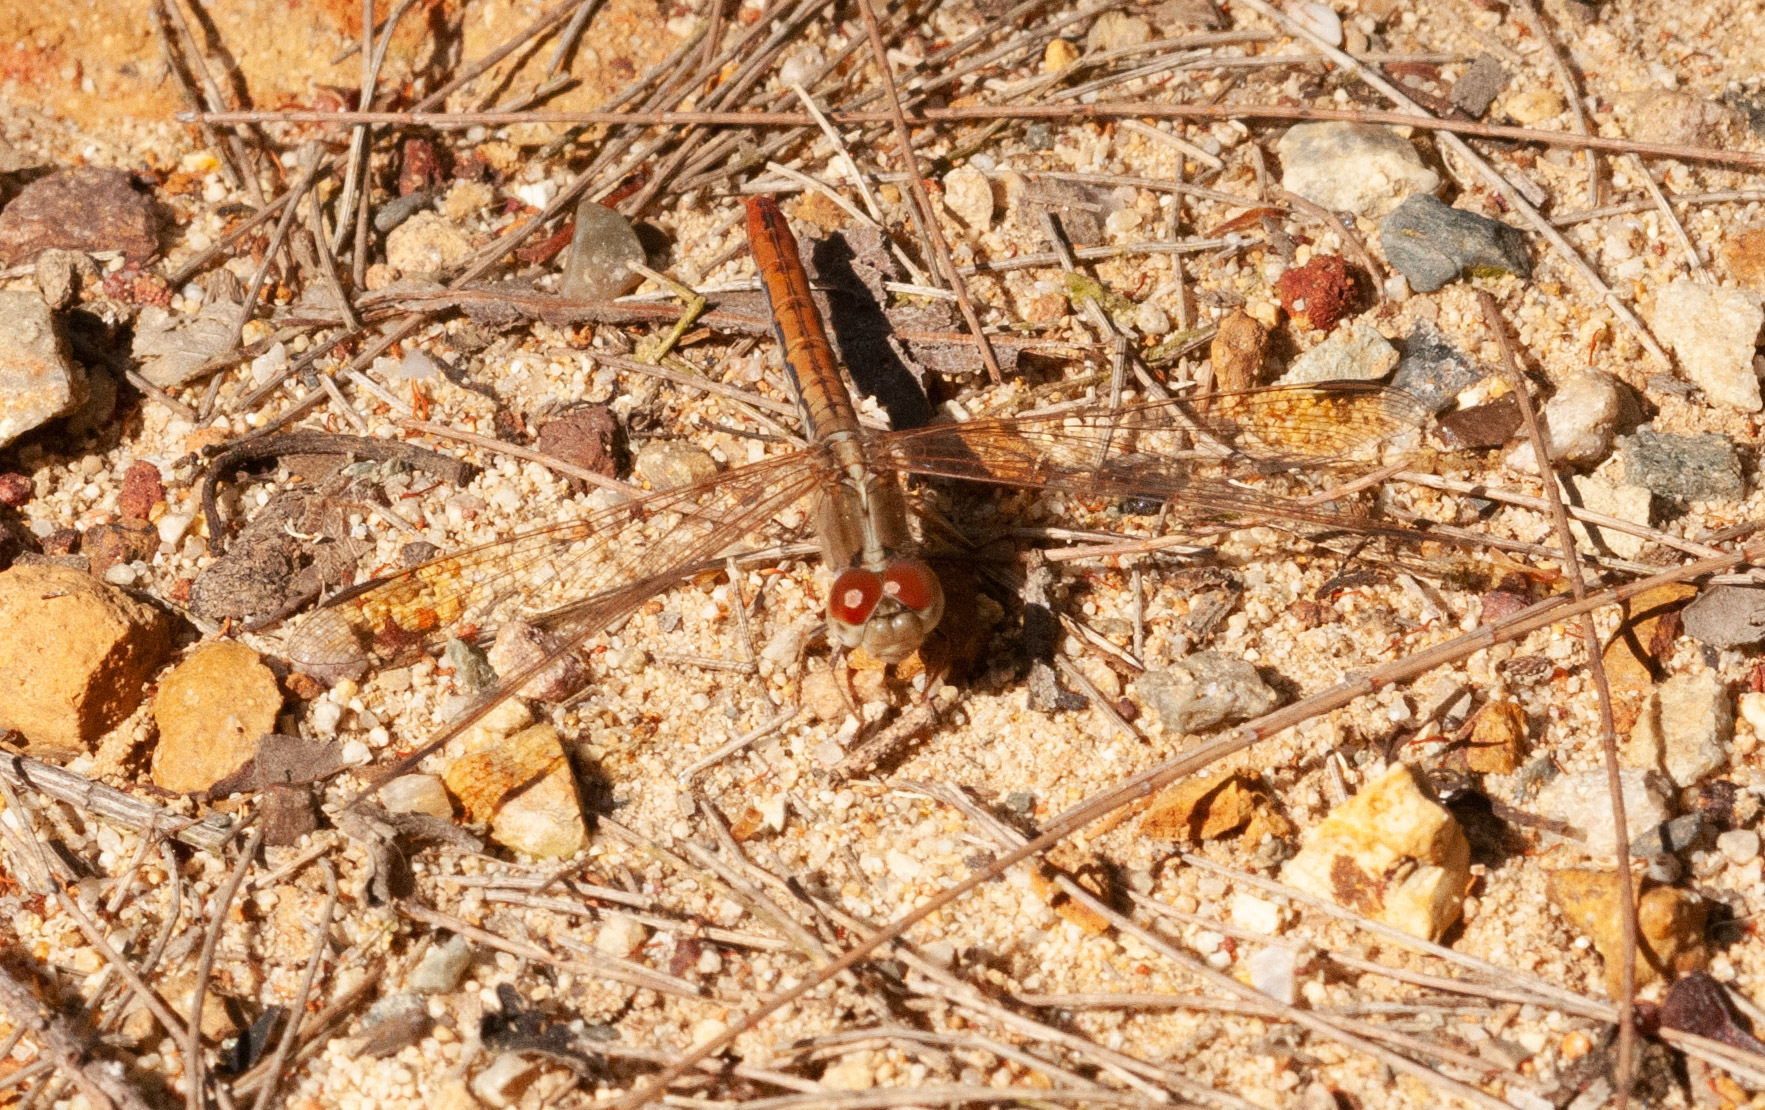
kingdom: Animalia
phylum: Arthropoda
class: Insecta
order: Odonata
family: Libellulidae
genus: Diplacodes
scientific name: Diplacodes haematodes
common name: Scarlet percher
